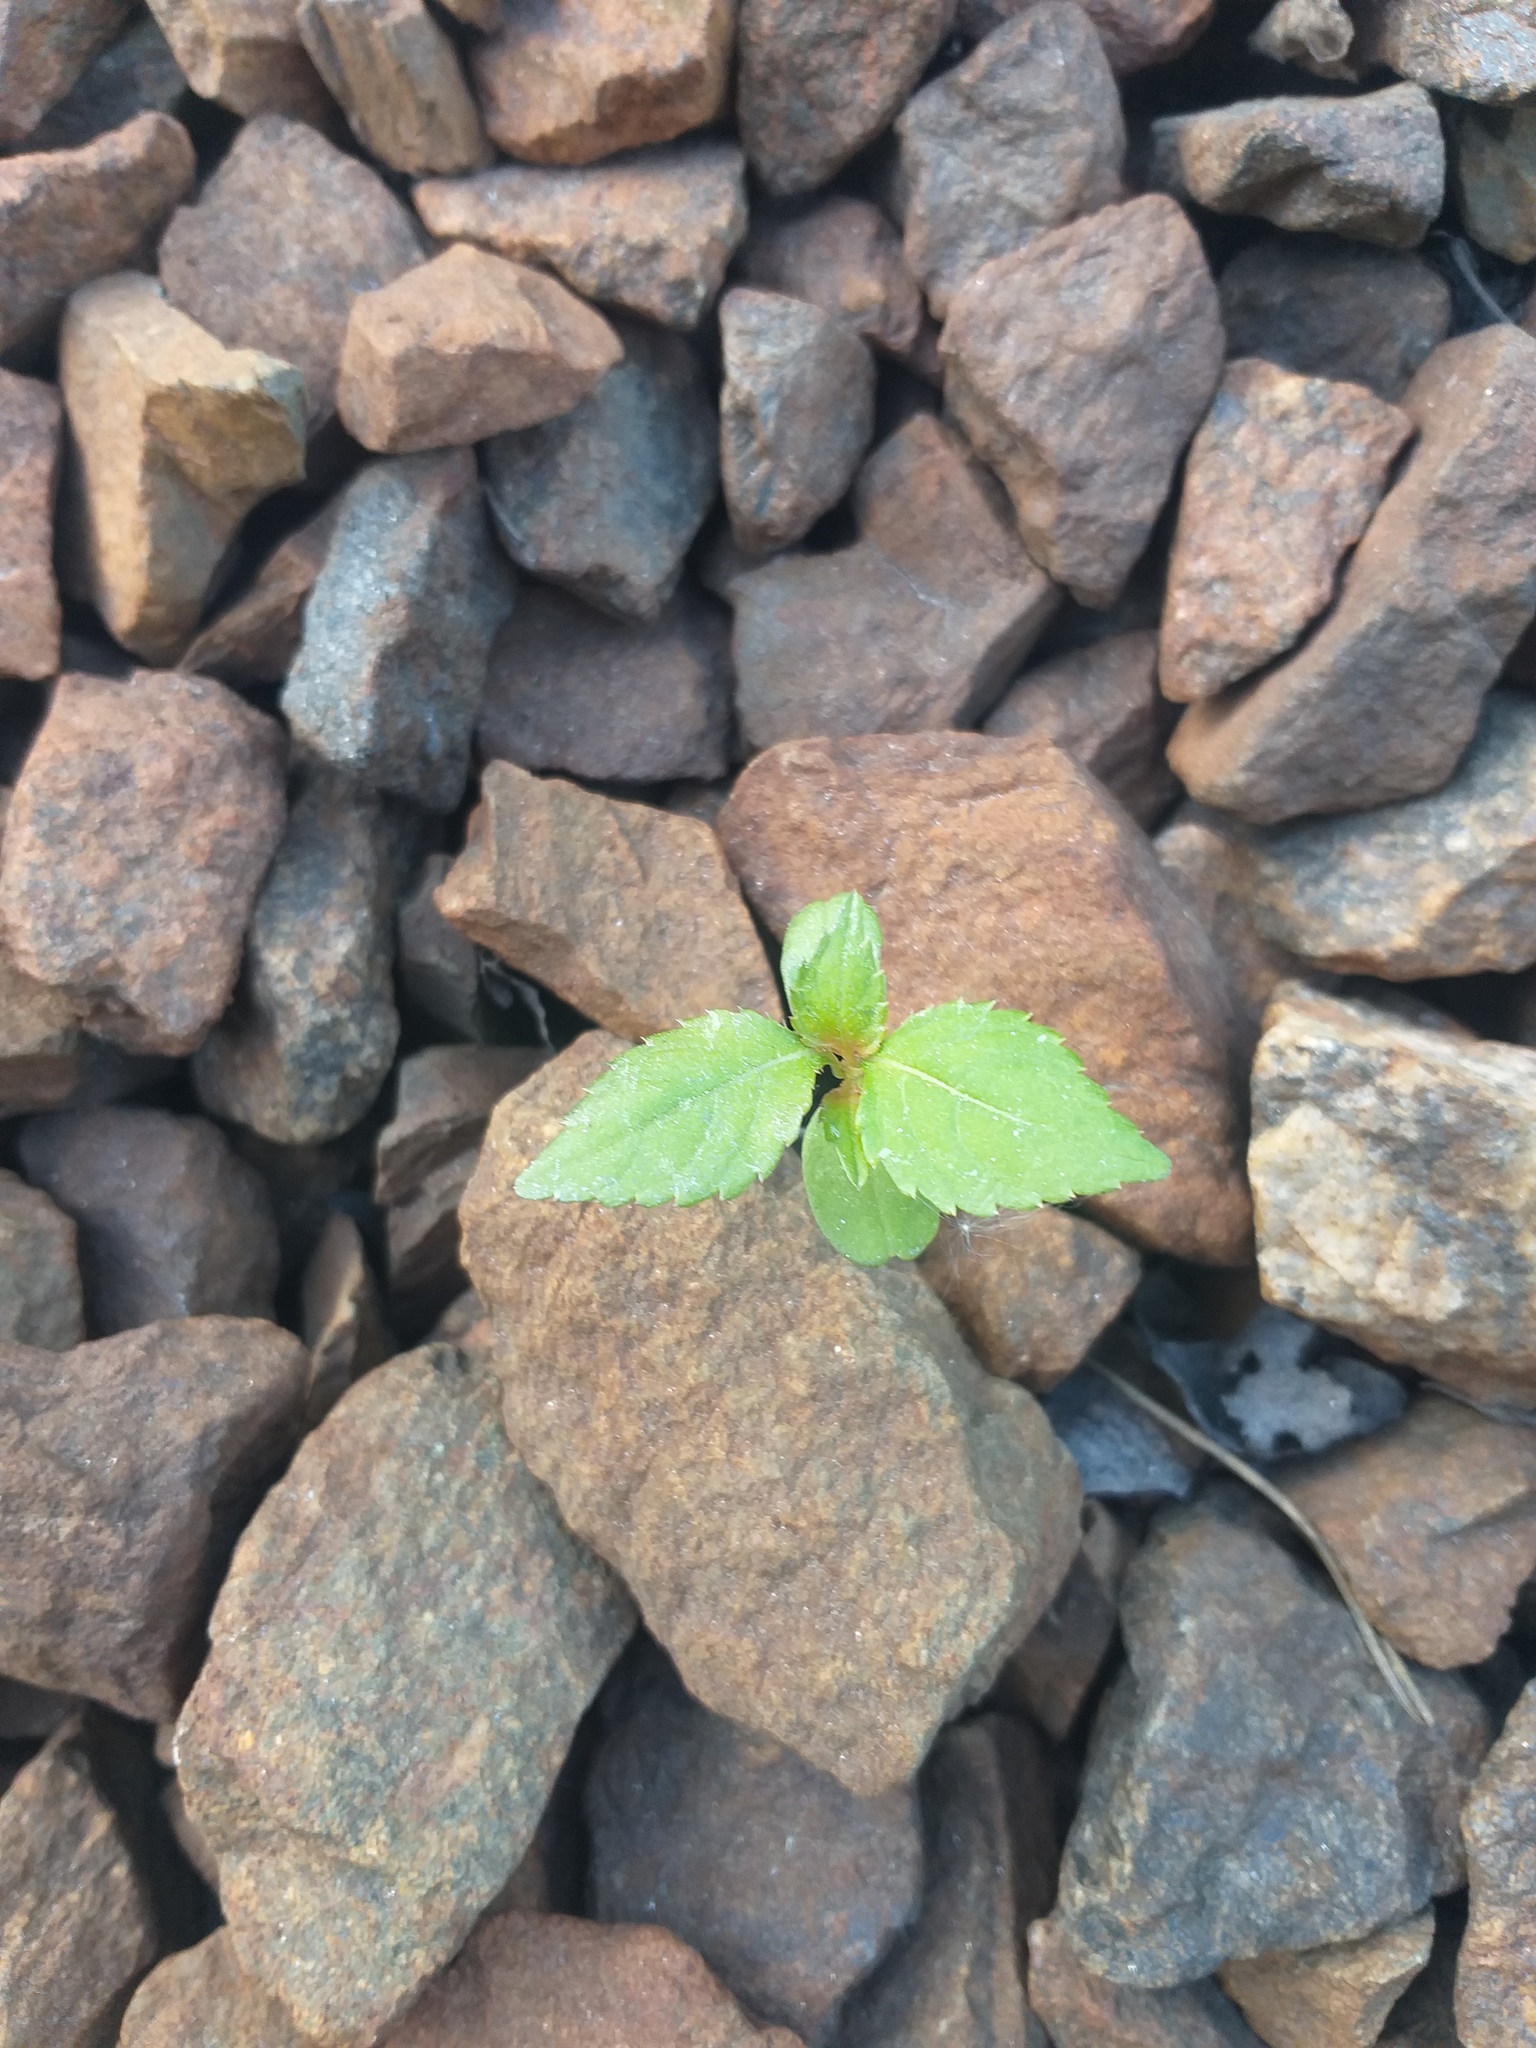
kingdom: Plantae
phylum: Tracheophyta
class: Magnoliopsida
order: Ericales
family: Balsaminaceae
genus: Impatiens
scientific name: Impatiens parviflora
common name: Small balsam
